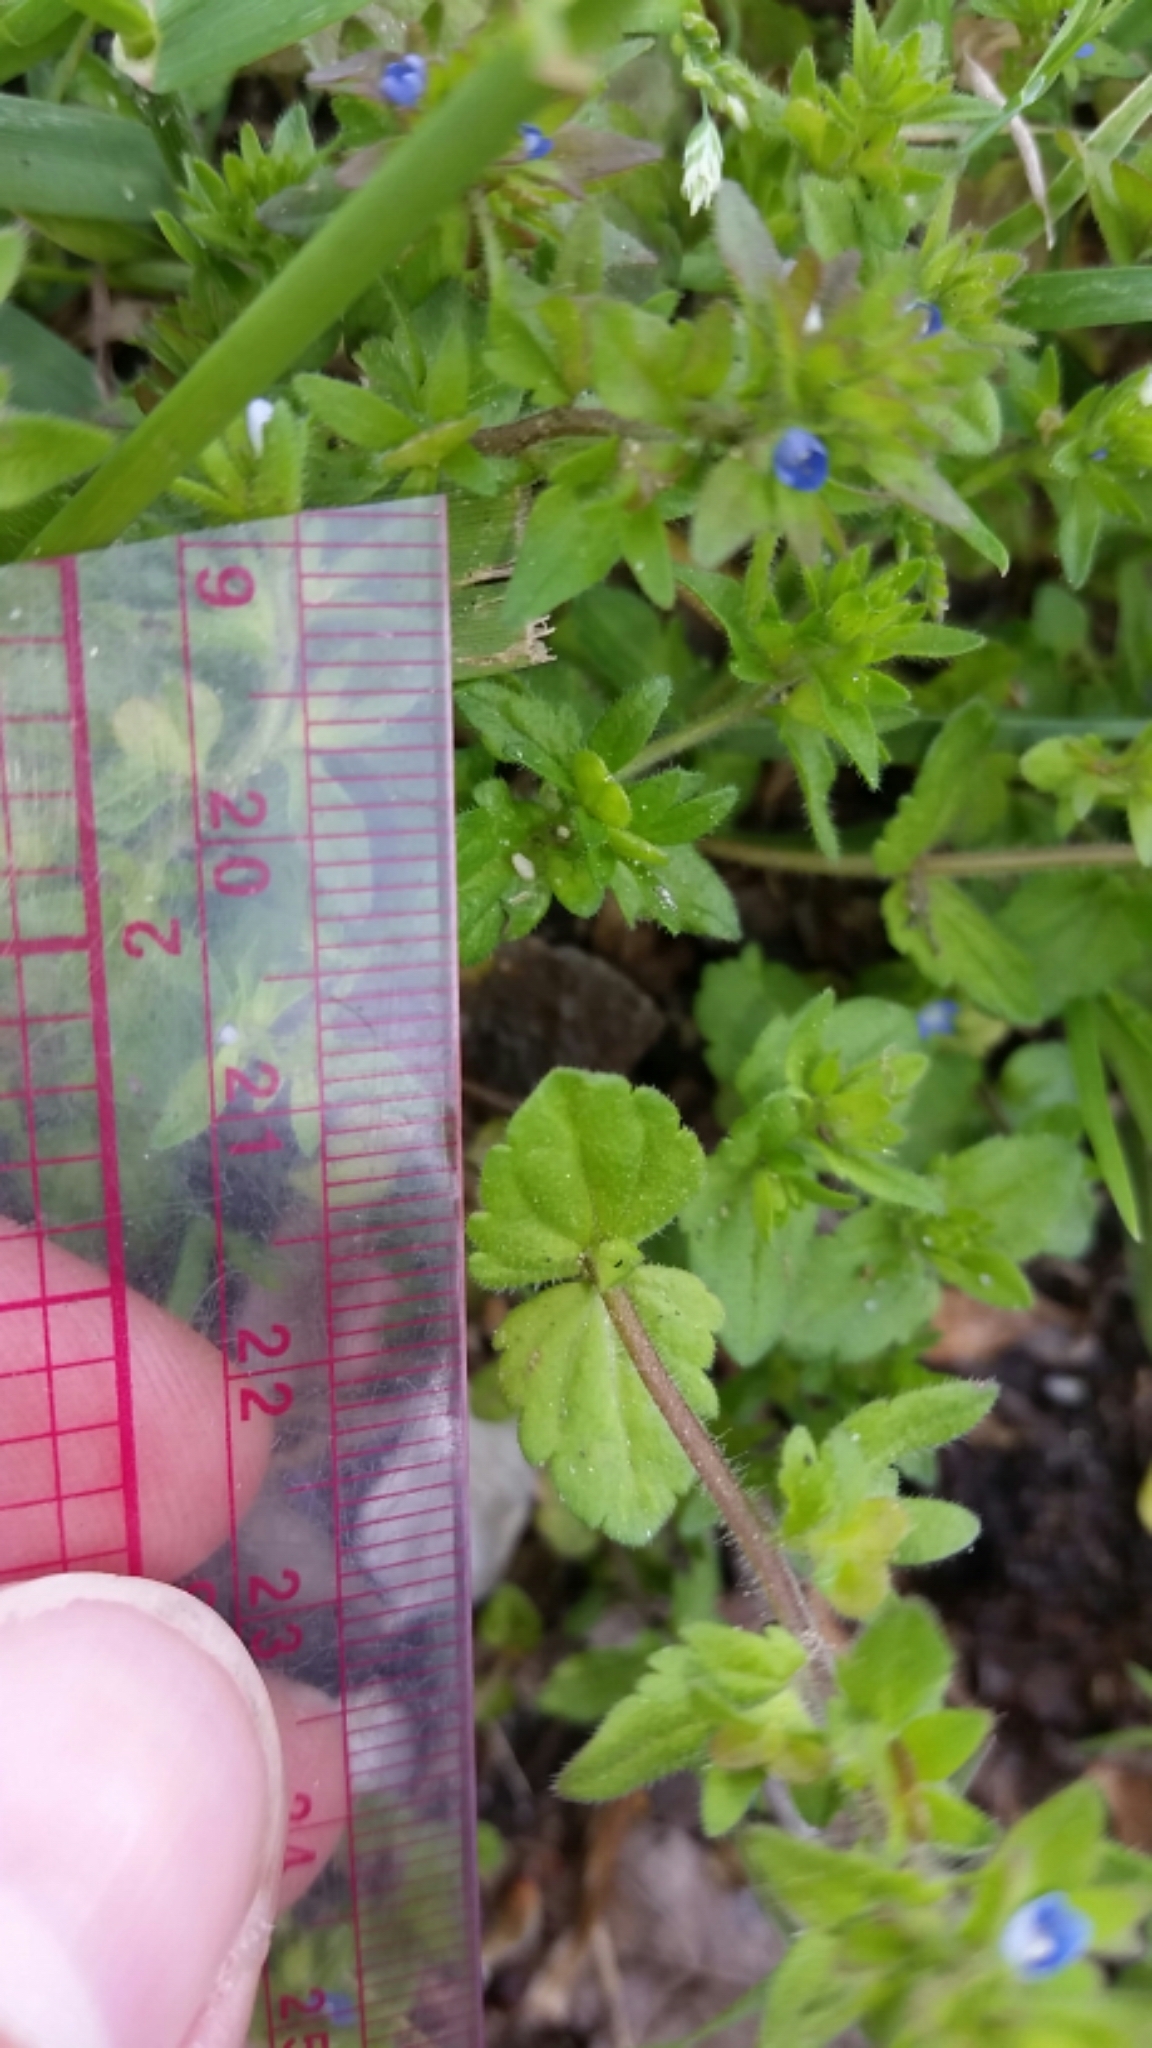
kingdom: Plantae
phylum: Tracheophyta
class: Magnoliopsida
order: Lamiales
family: Plantaginaceae
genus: Veronica
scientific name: Veronica arvensis
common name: Corn speedwell
